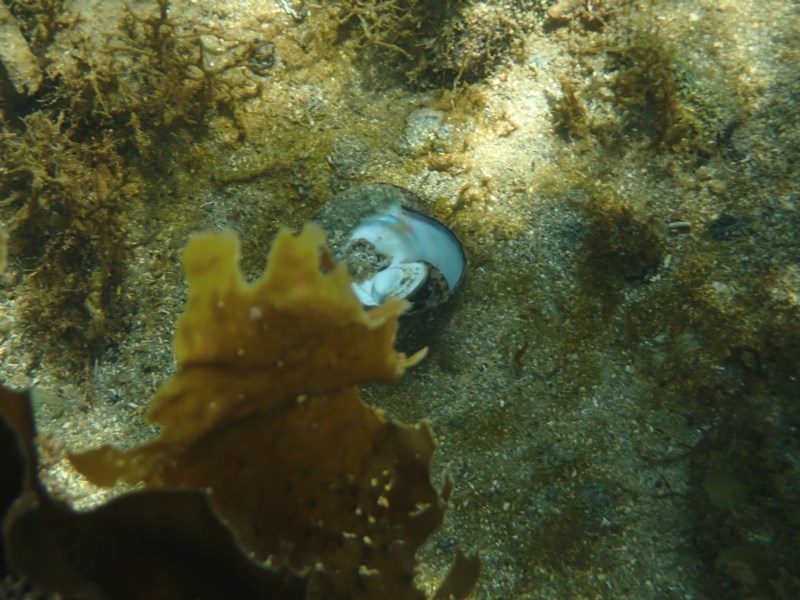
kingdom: Animalia
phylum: Mollusca
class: Gastropoda
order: Trochida
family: Turbinidae
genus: Lunella
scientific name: Lunella torquata
